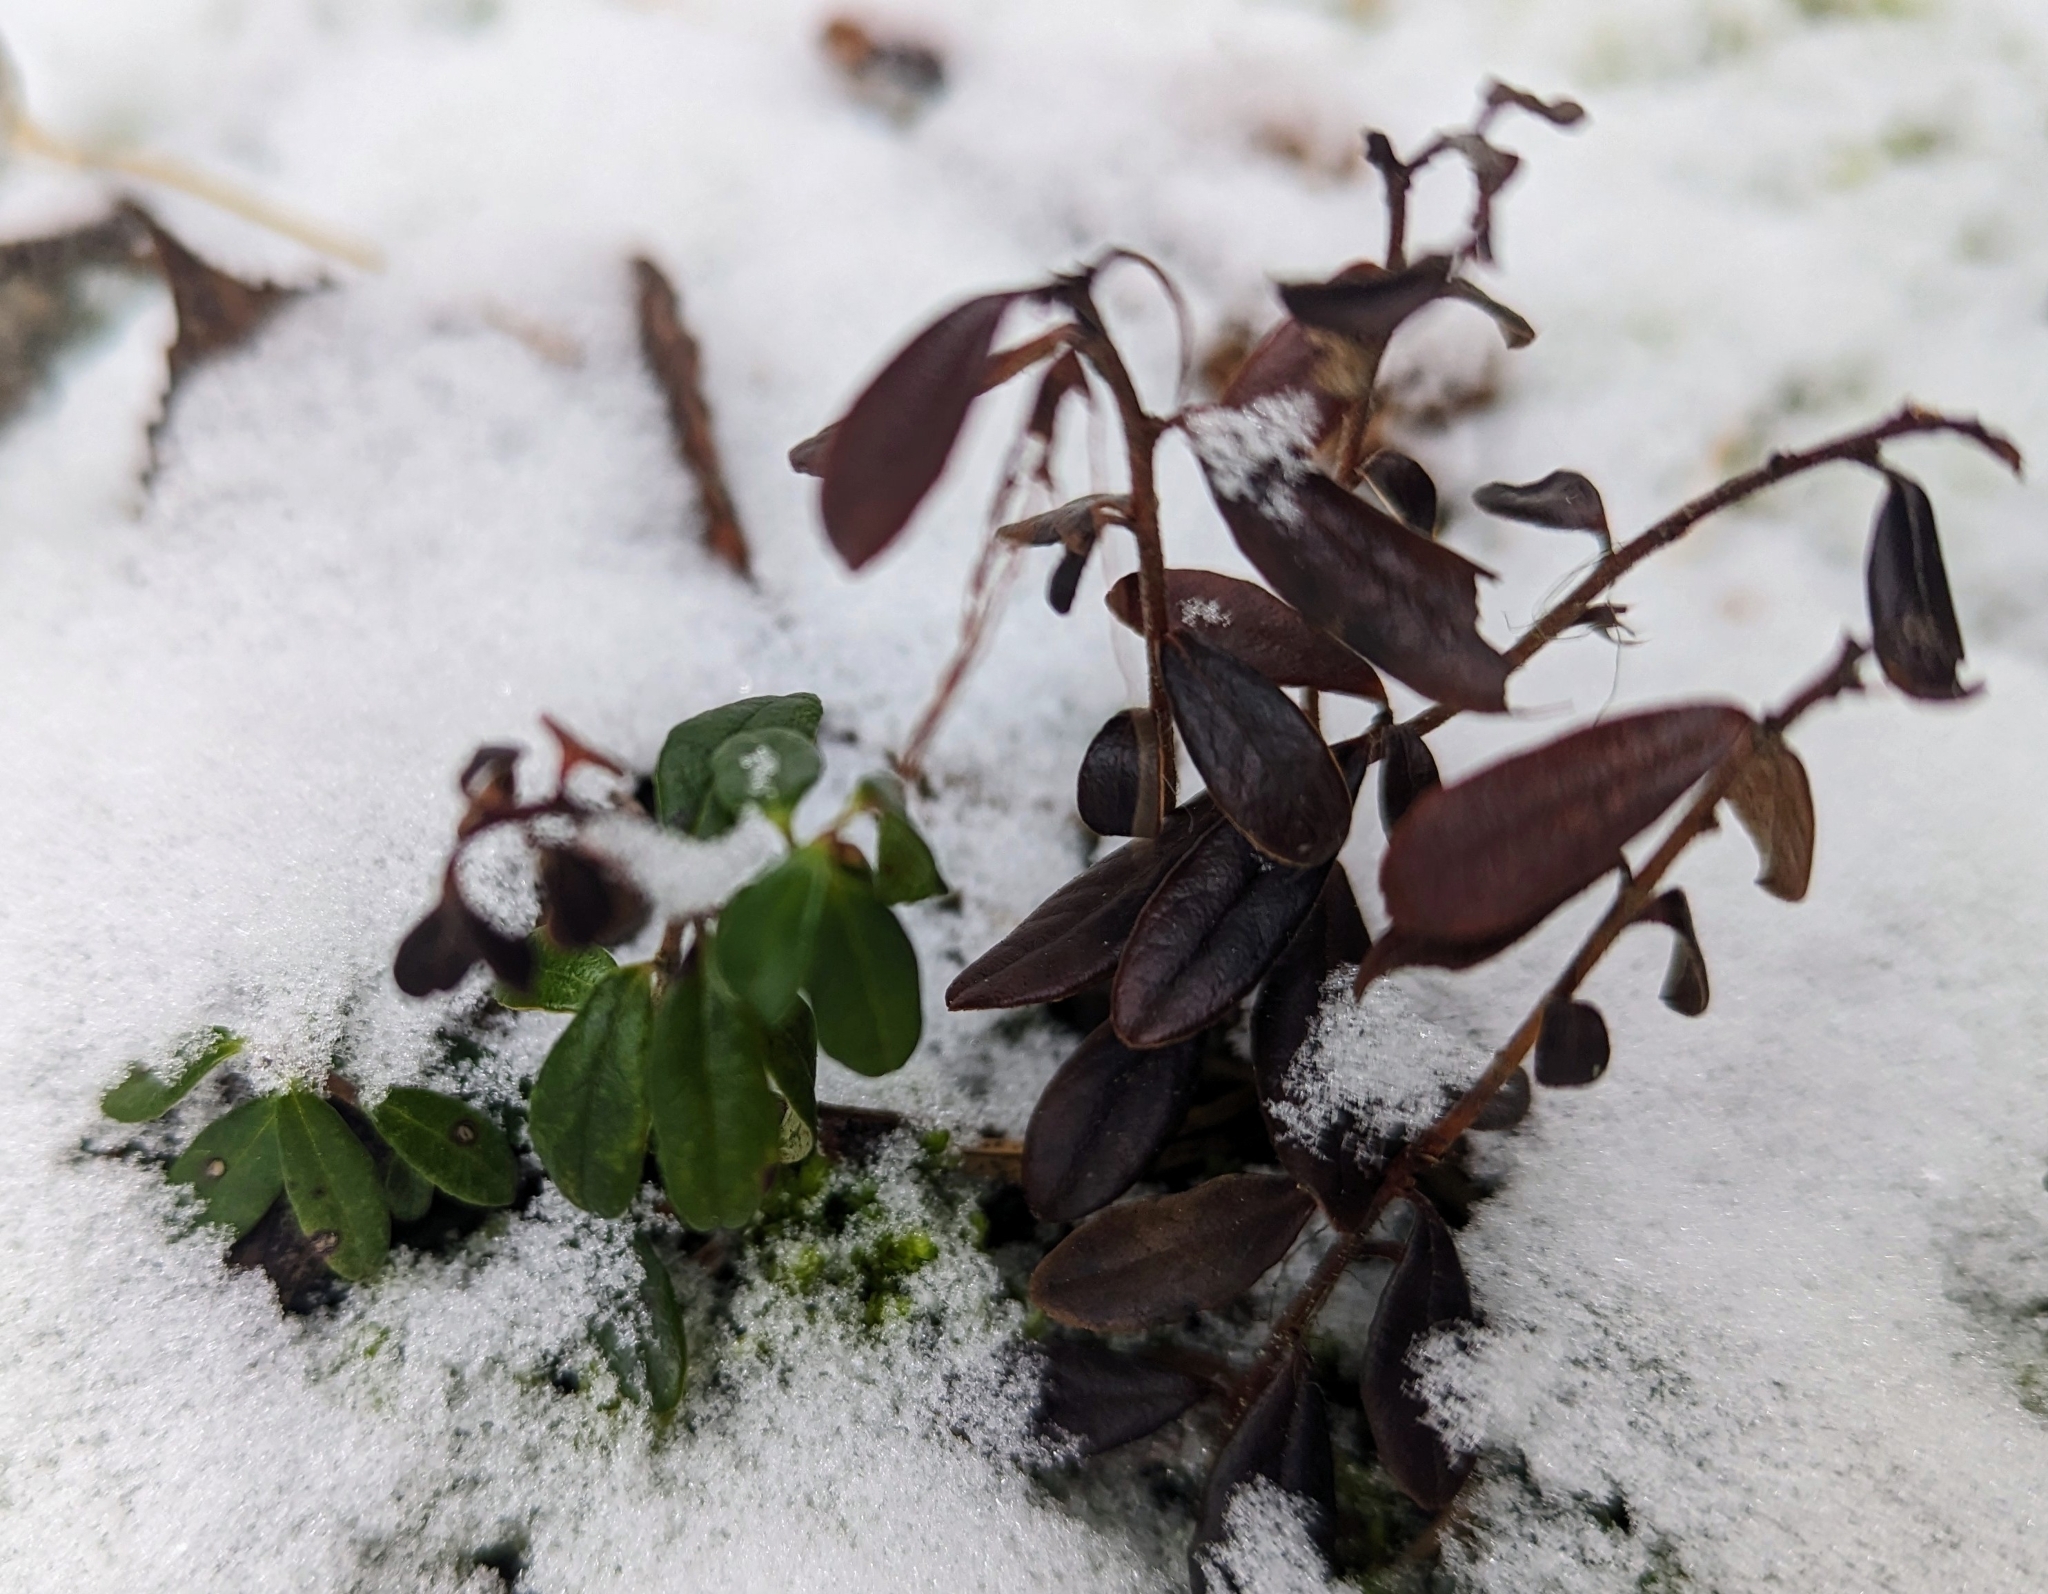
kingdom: Plantae
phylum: Tracheophyta
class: Magnoliopsida
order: Ericales
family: Ericaceae
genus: Vaccinium
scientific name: Vaccinium vitis-idaea
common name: Cowberry
